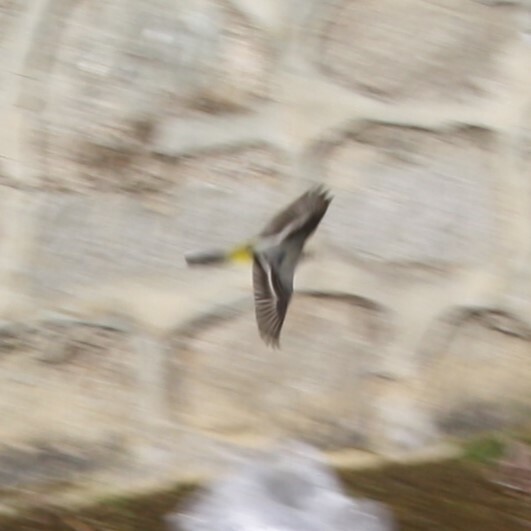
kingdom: Animalia
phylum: Chordata
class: Aves
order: Passeriformes
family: Motacillidae
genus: Motacilla
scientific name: Motacilla cinerea
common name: Grey wagtail
